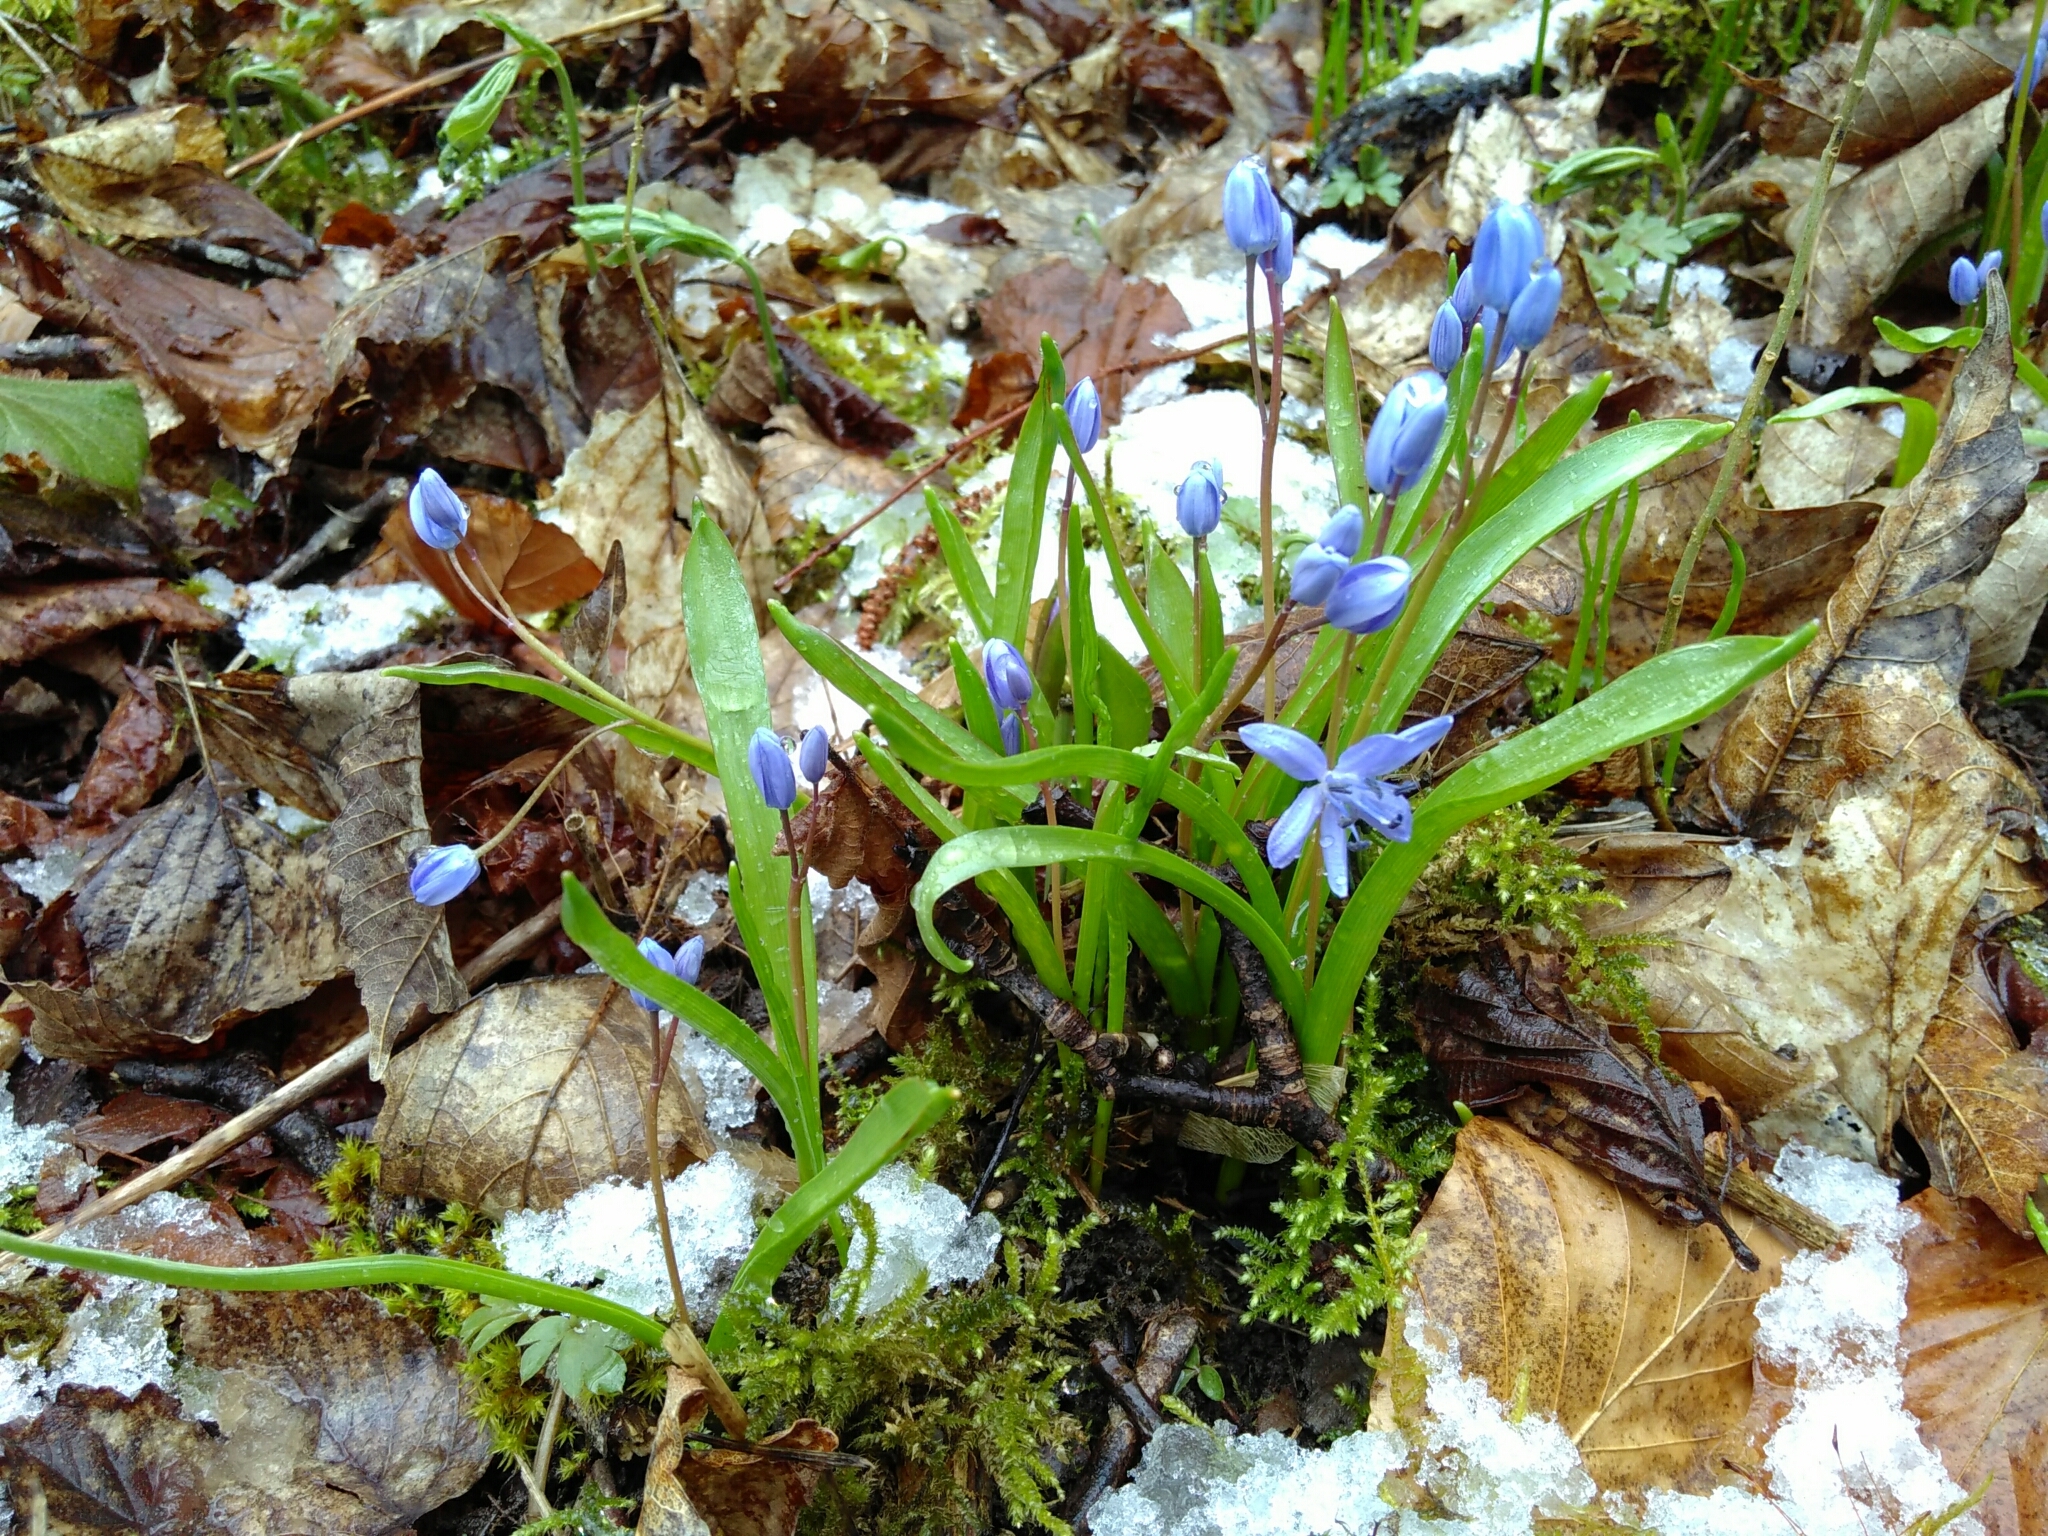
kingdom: Plantae
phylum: Tracheophyta
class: Liliopsida
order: Asparagales
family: Asparagaceae
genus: Scilla
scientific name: Scilla bifolia
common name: Alpine squill
